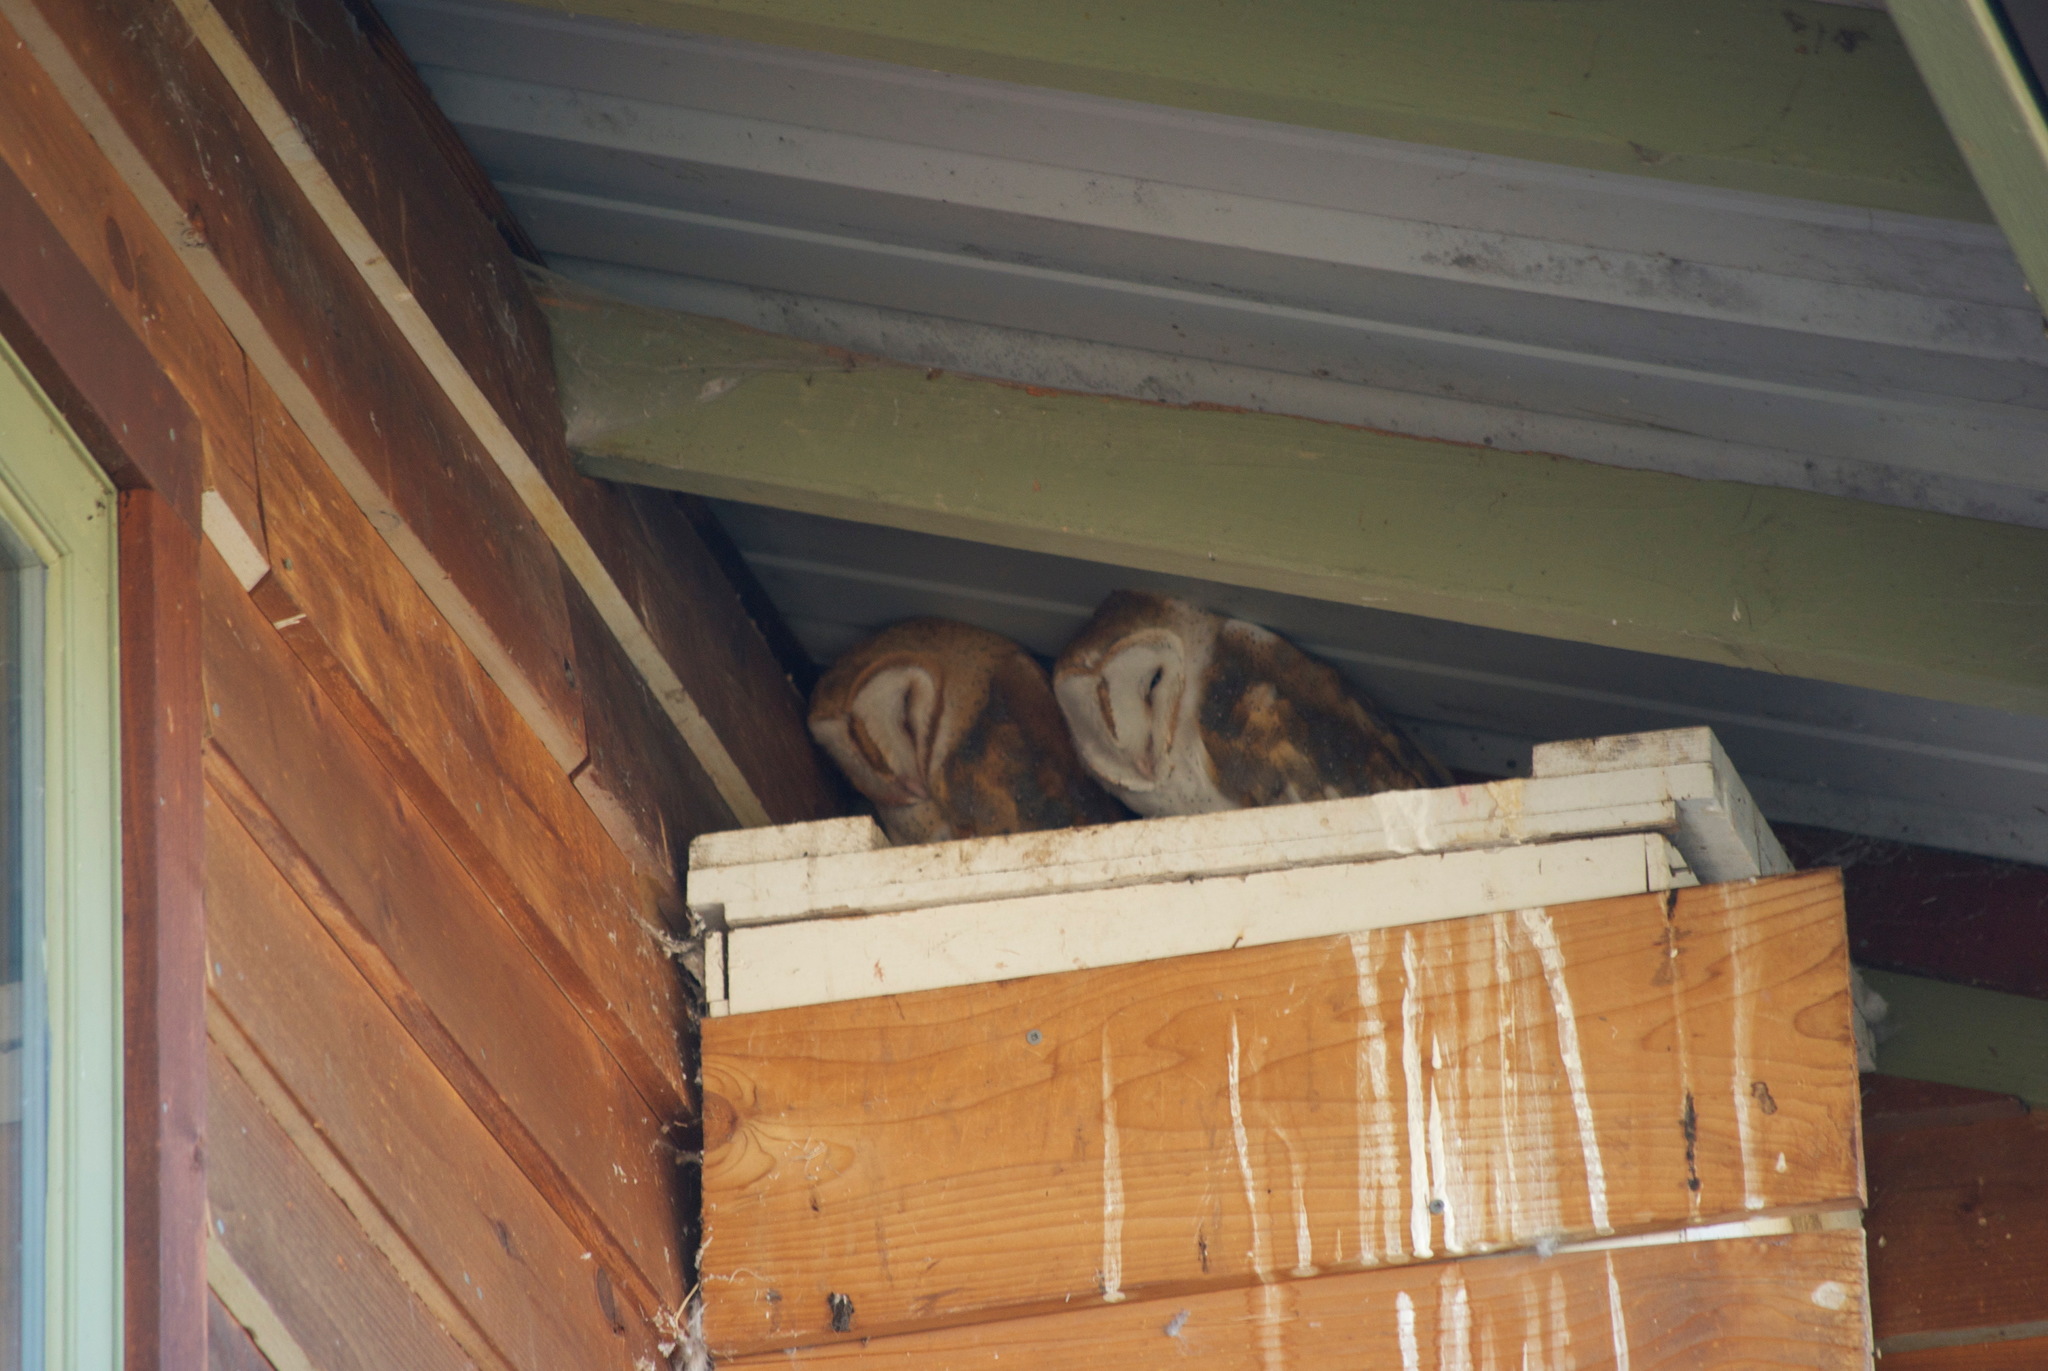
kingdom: Animalia
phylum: Chordata
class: Aves
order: Strigiformes
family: Tytonidae
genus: Tyto
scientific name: Tyto alba
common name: Barn owl
